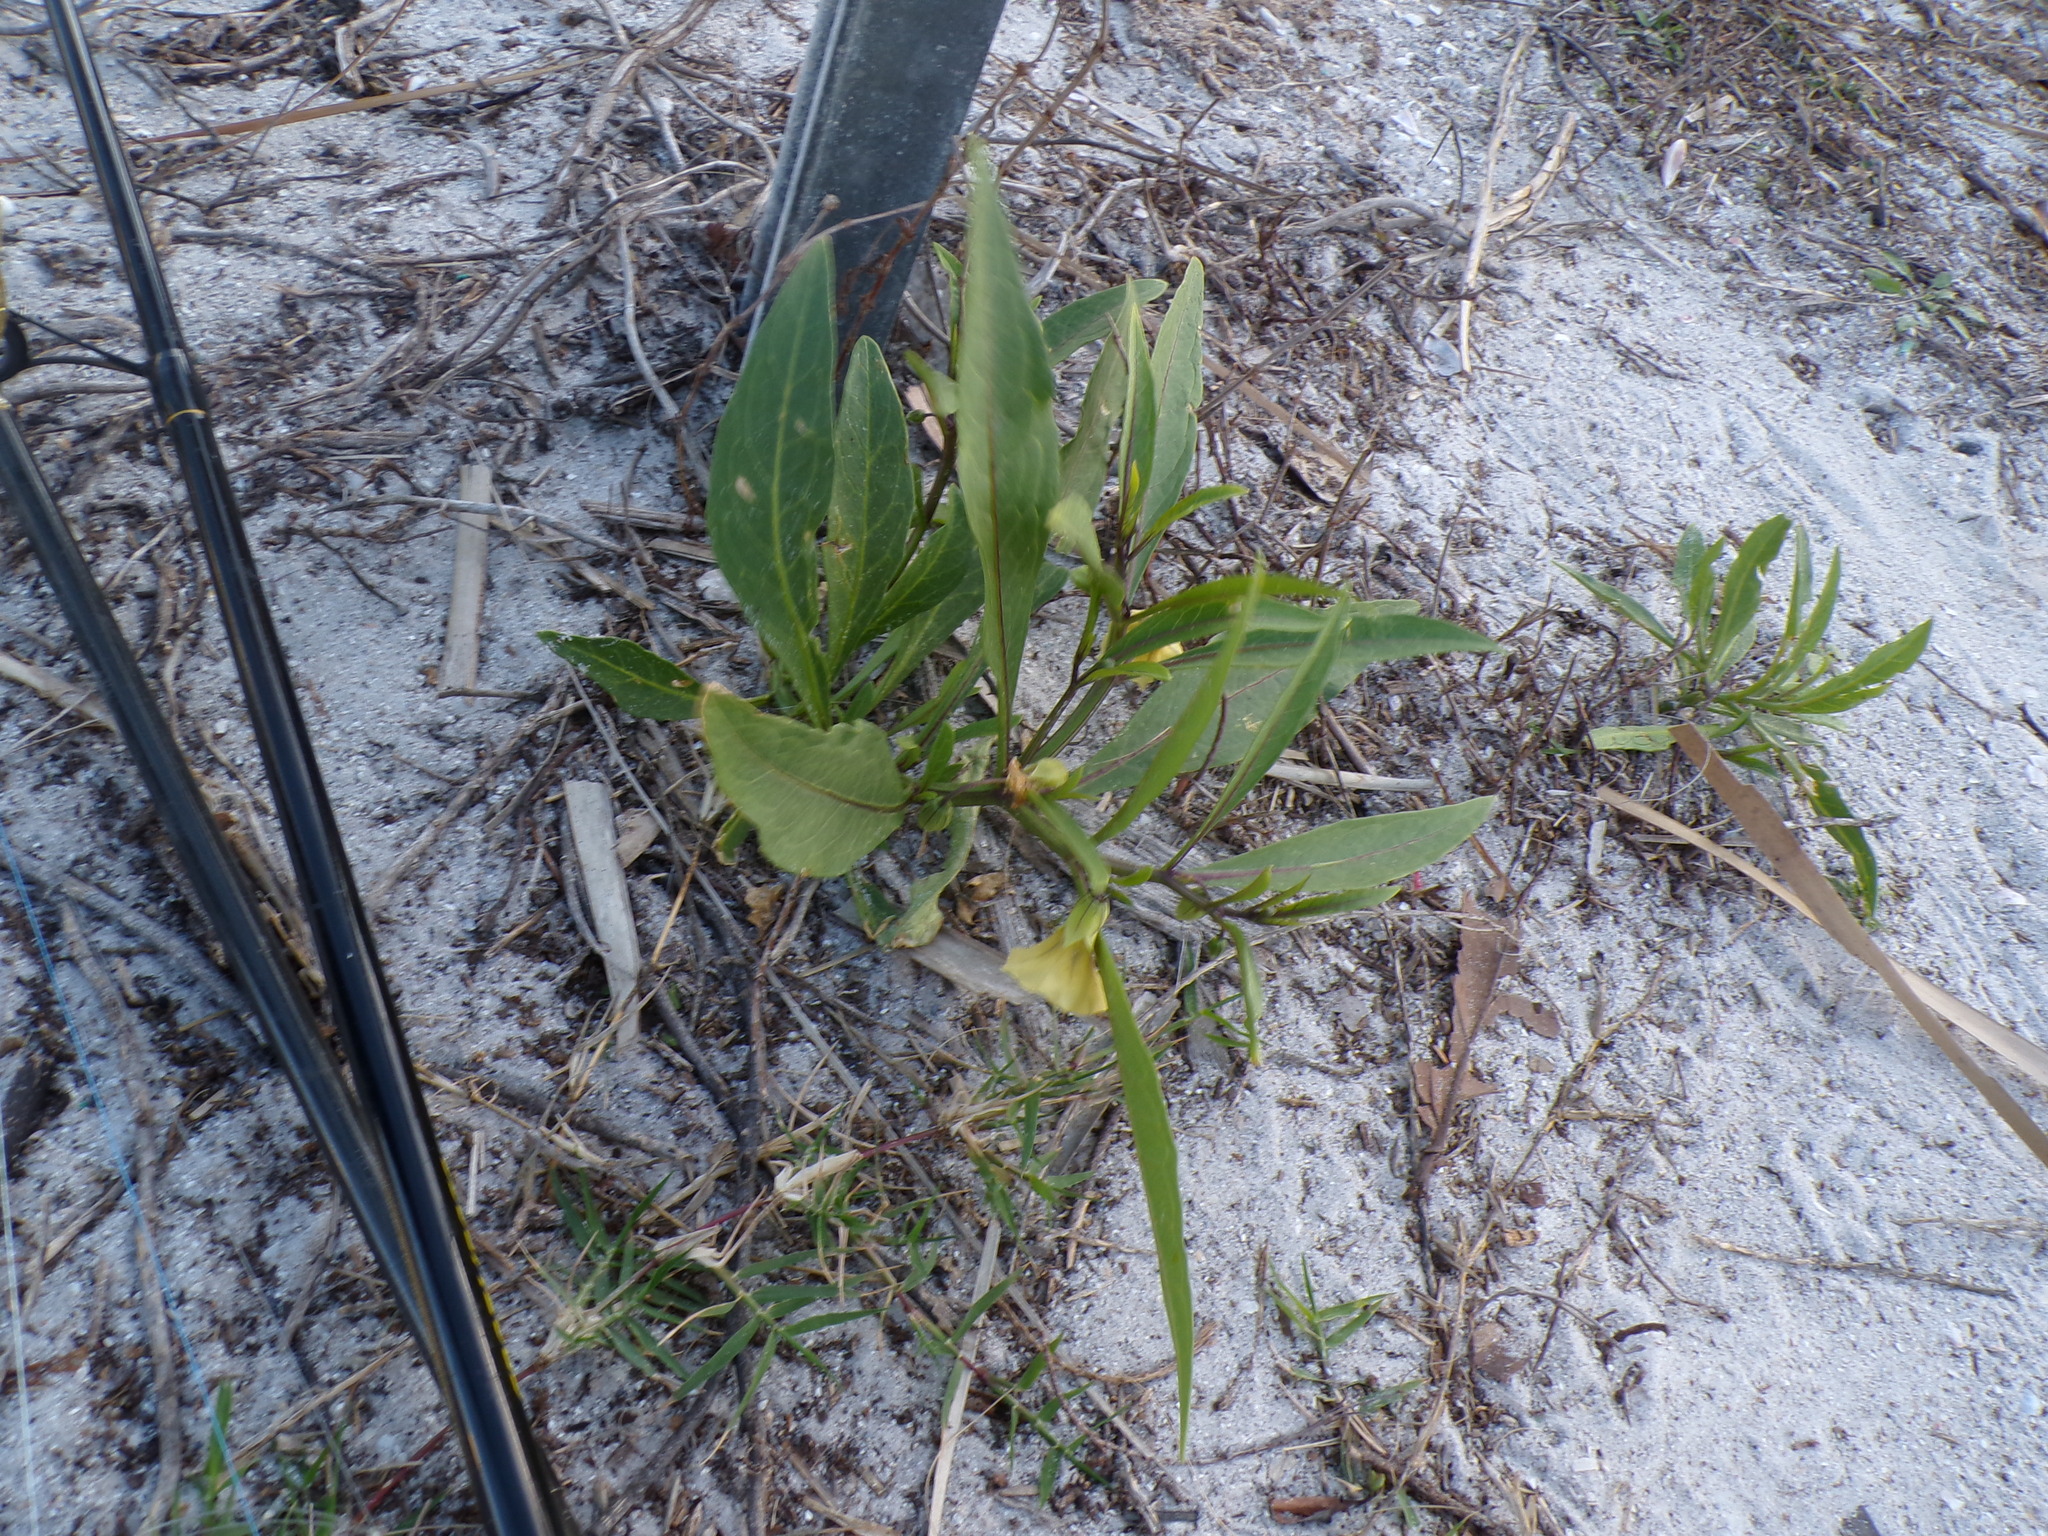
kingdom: Plantae
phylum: Tracheophyta
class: Magnoliopsida
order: Solanales
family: Solanaceae
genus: Physalis
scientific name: Physalis elliottii
